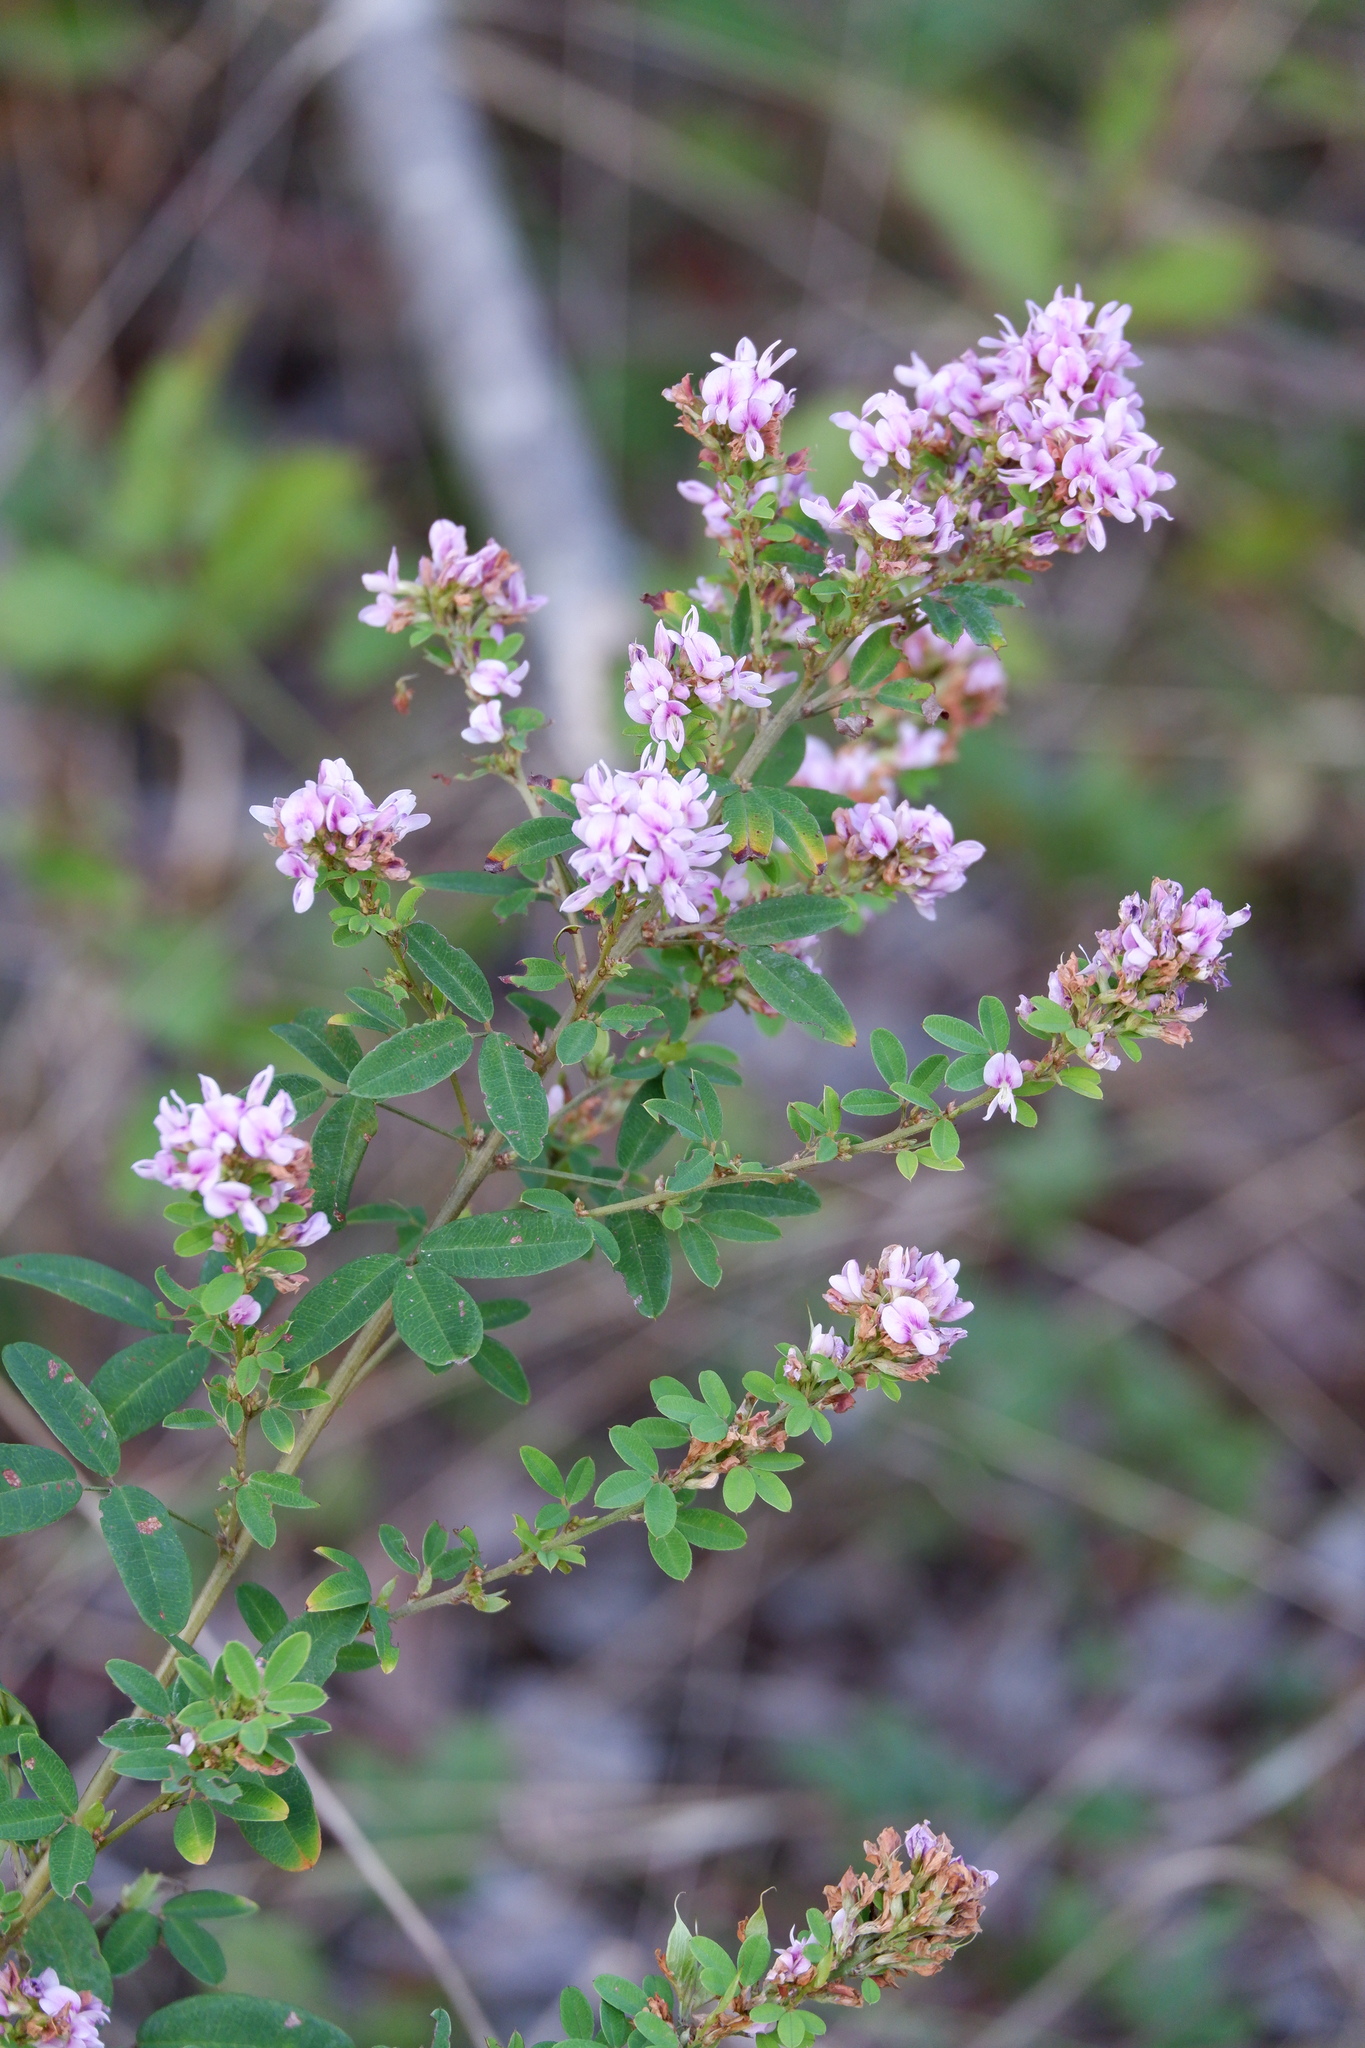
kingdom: Plantae
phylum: Tracheophyta
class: Magnoliopsida
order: Fabales
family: Fabaceae
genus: Lespedeza
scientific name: Lespedeza violacea
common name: Wand bush-clover
